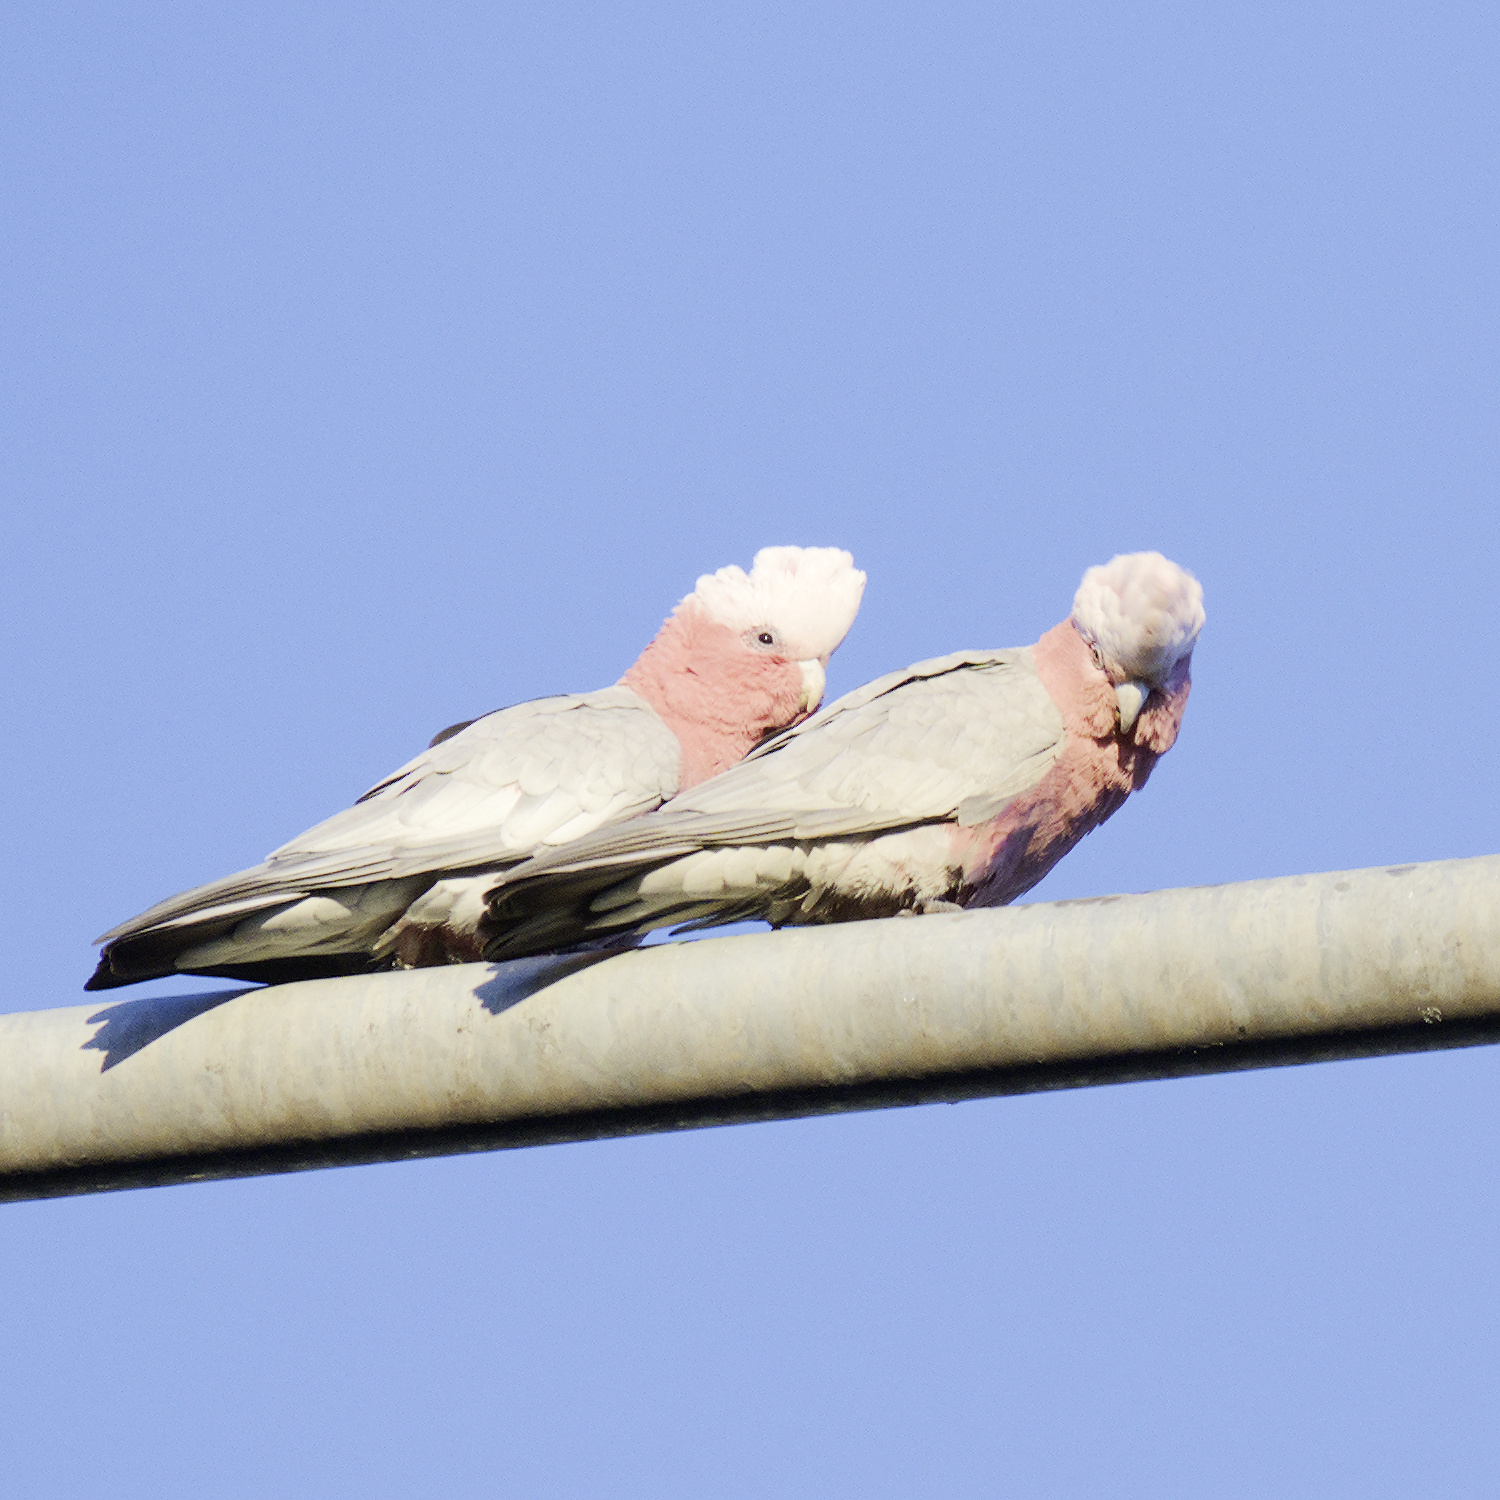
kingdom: Animalia
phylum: Chordata
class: Aves
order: Psittaciformes
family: Psittacidae
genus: Eolophus
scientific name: Eolophus roseicapilla
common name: Galah
